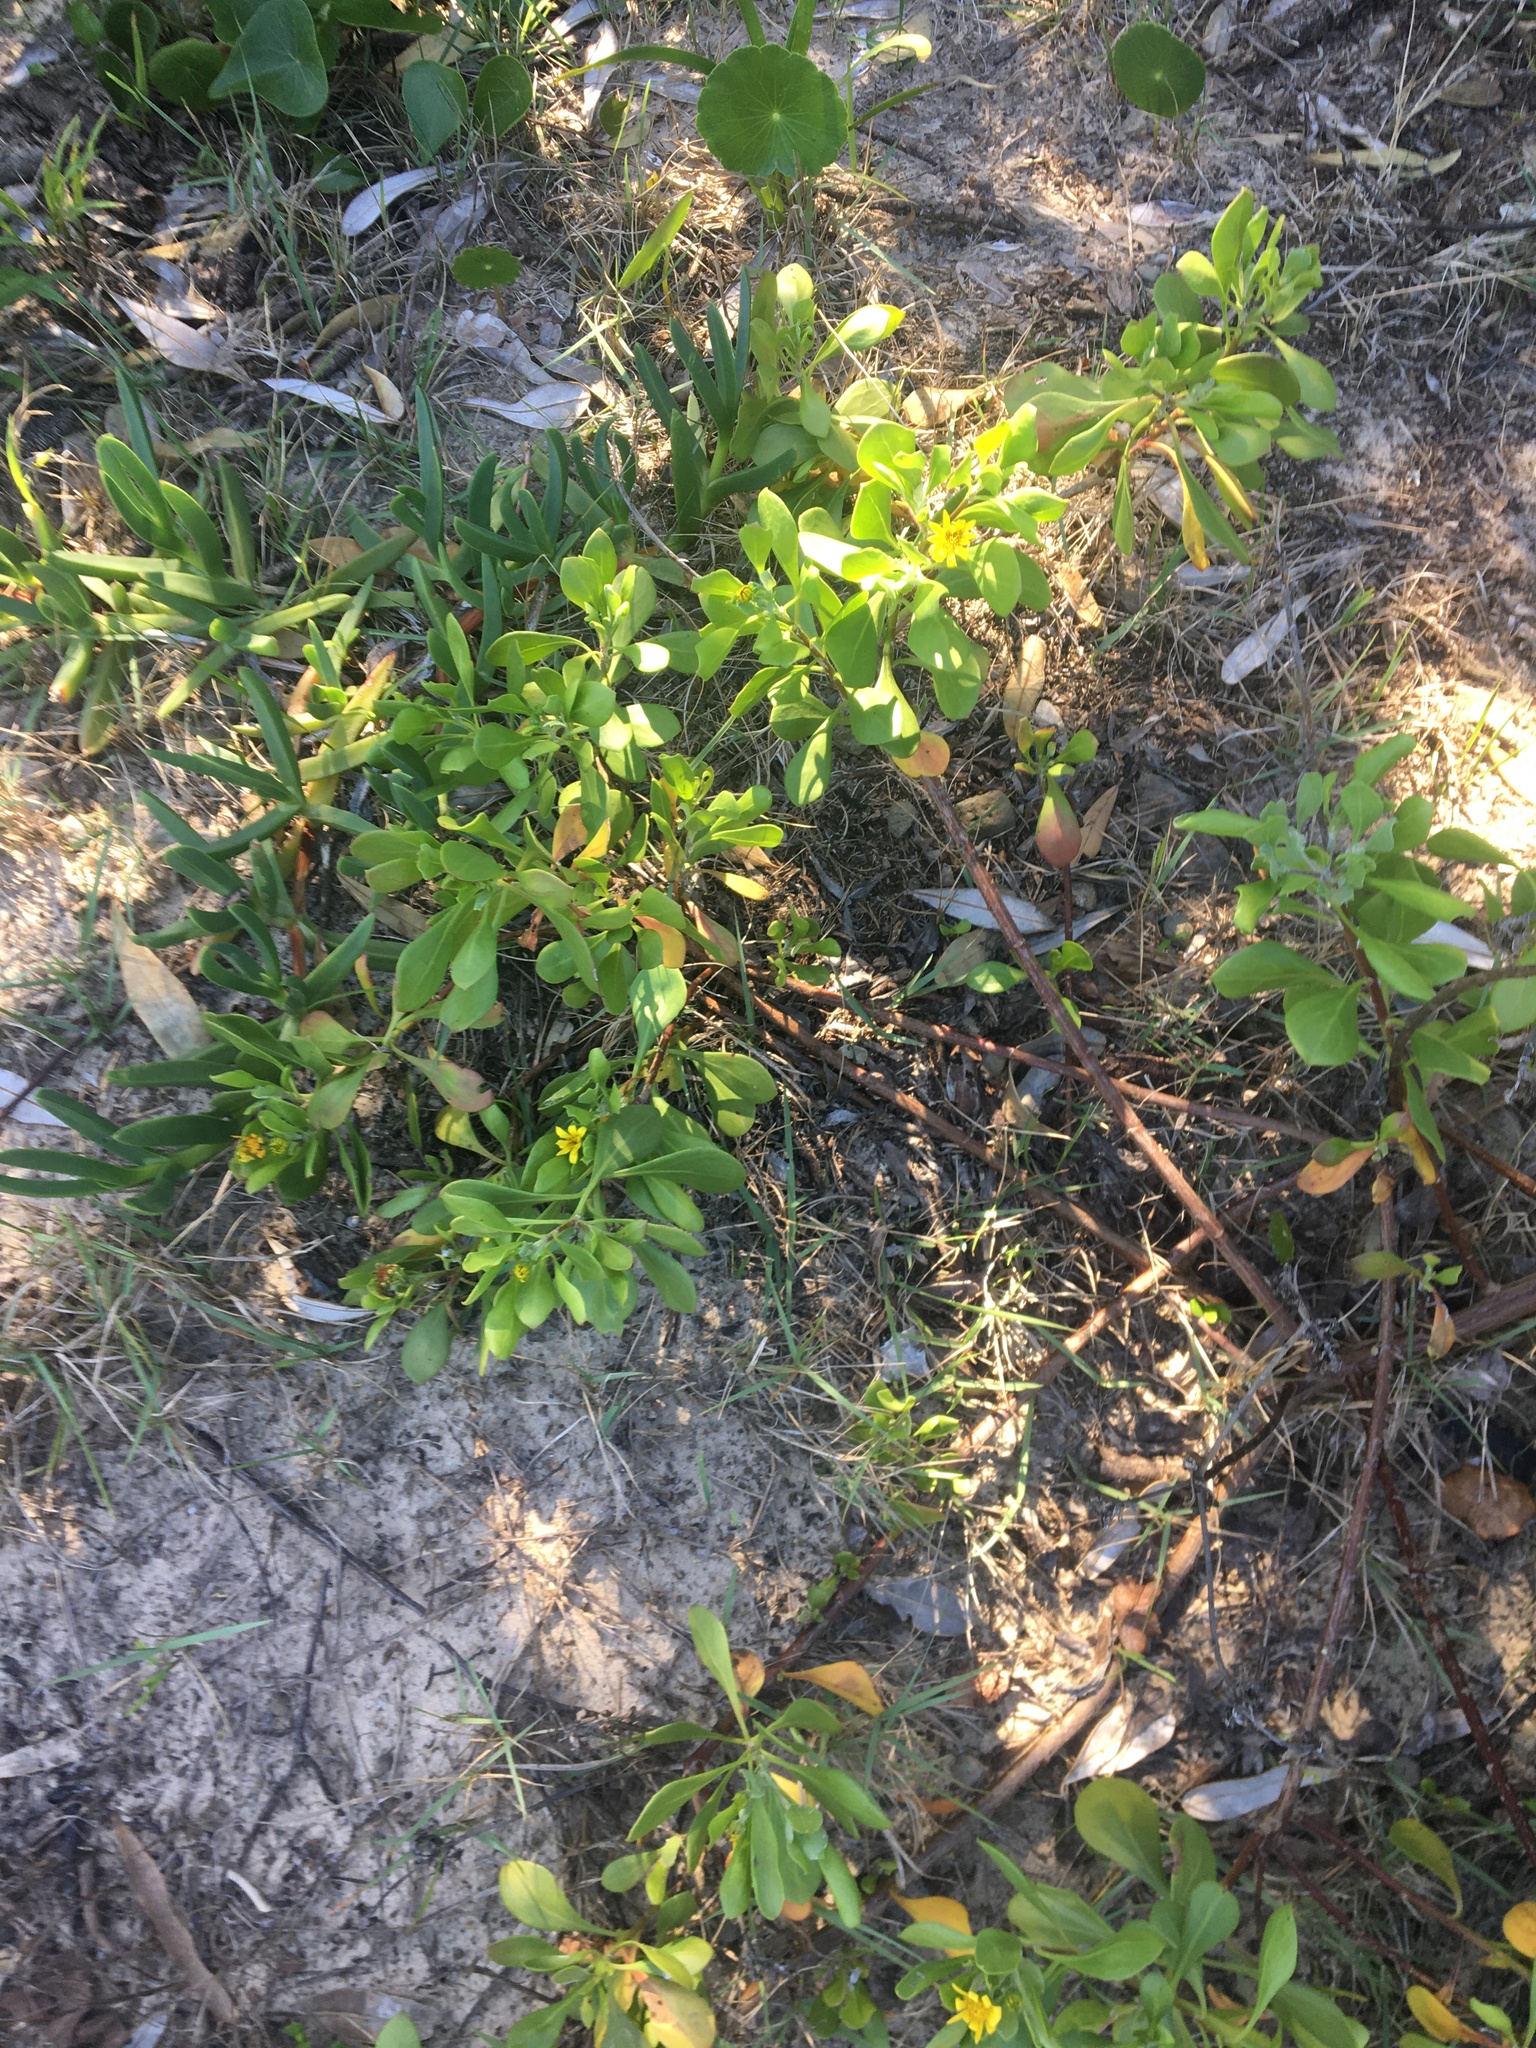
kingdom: Plantae
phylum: Tracheophyta
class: Magnoliopsida
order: Asterales
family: Asteraceae
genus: Osteospermum
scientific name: Osteospermum moniliferum
